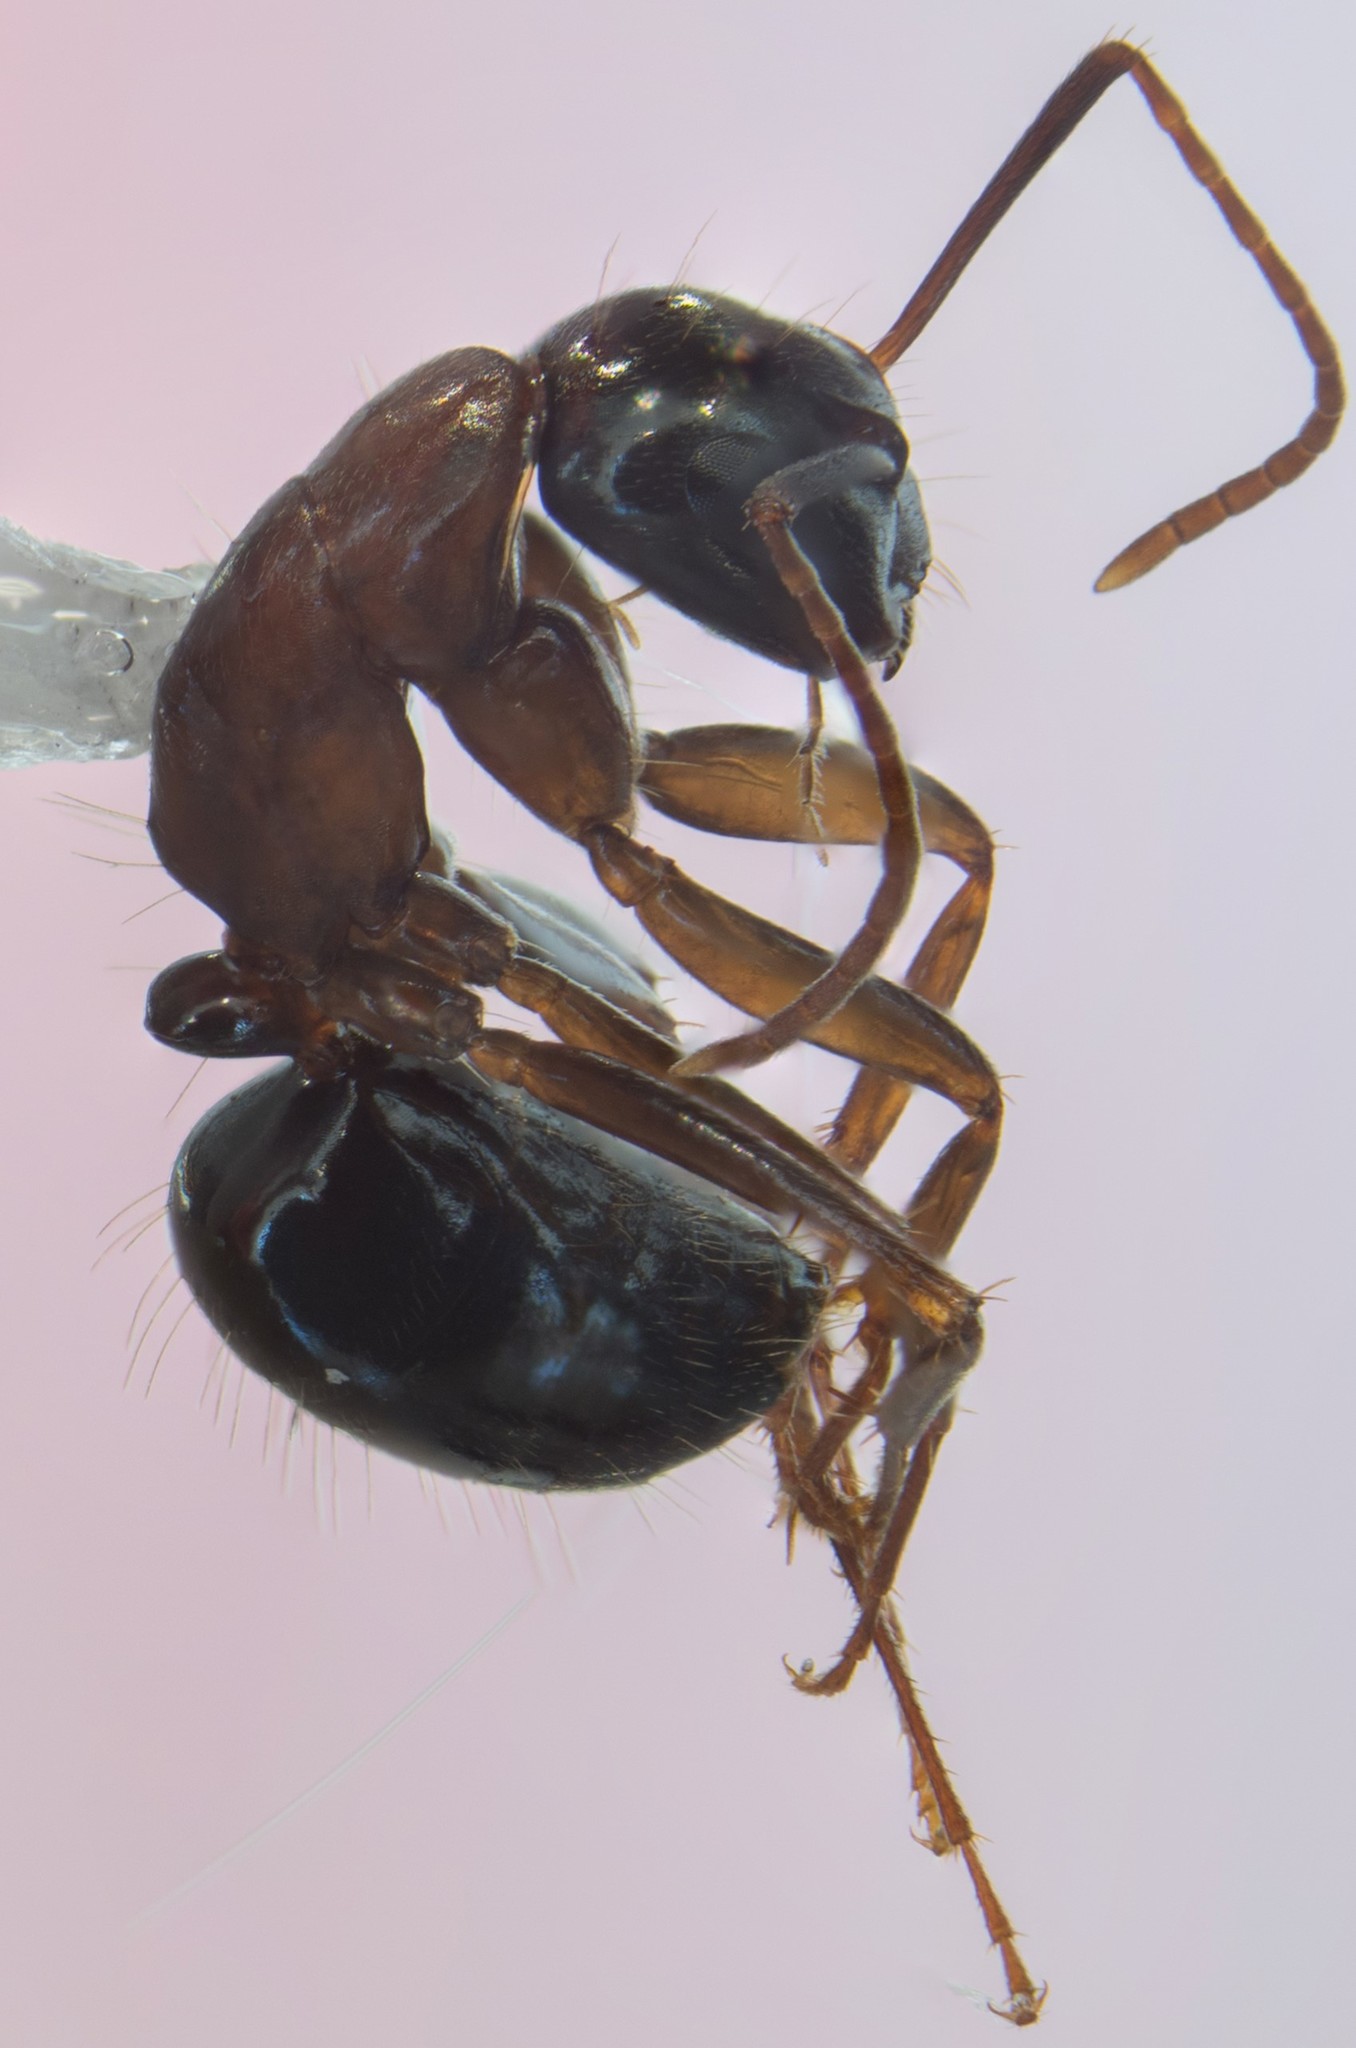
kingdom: Animalia
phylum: Arthropoda
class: Insecta
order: Hymenoptera
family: Formicidae
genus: Camponotus
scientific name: Camponotus anthrax
